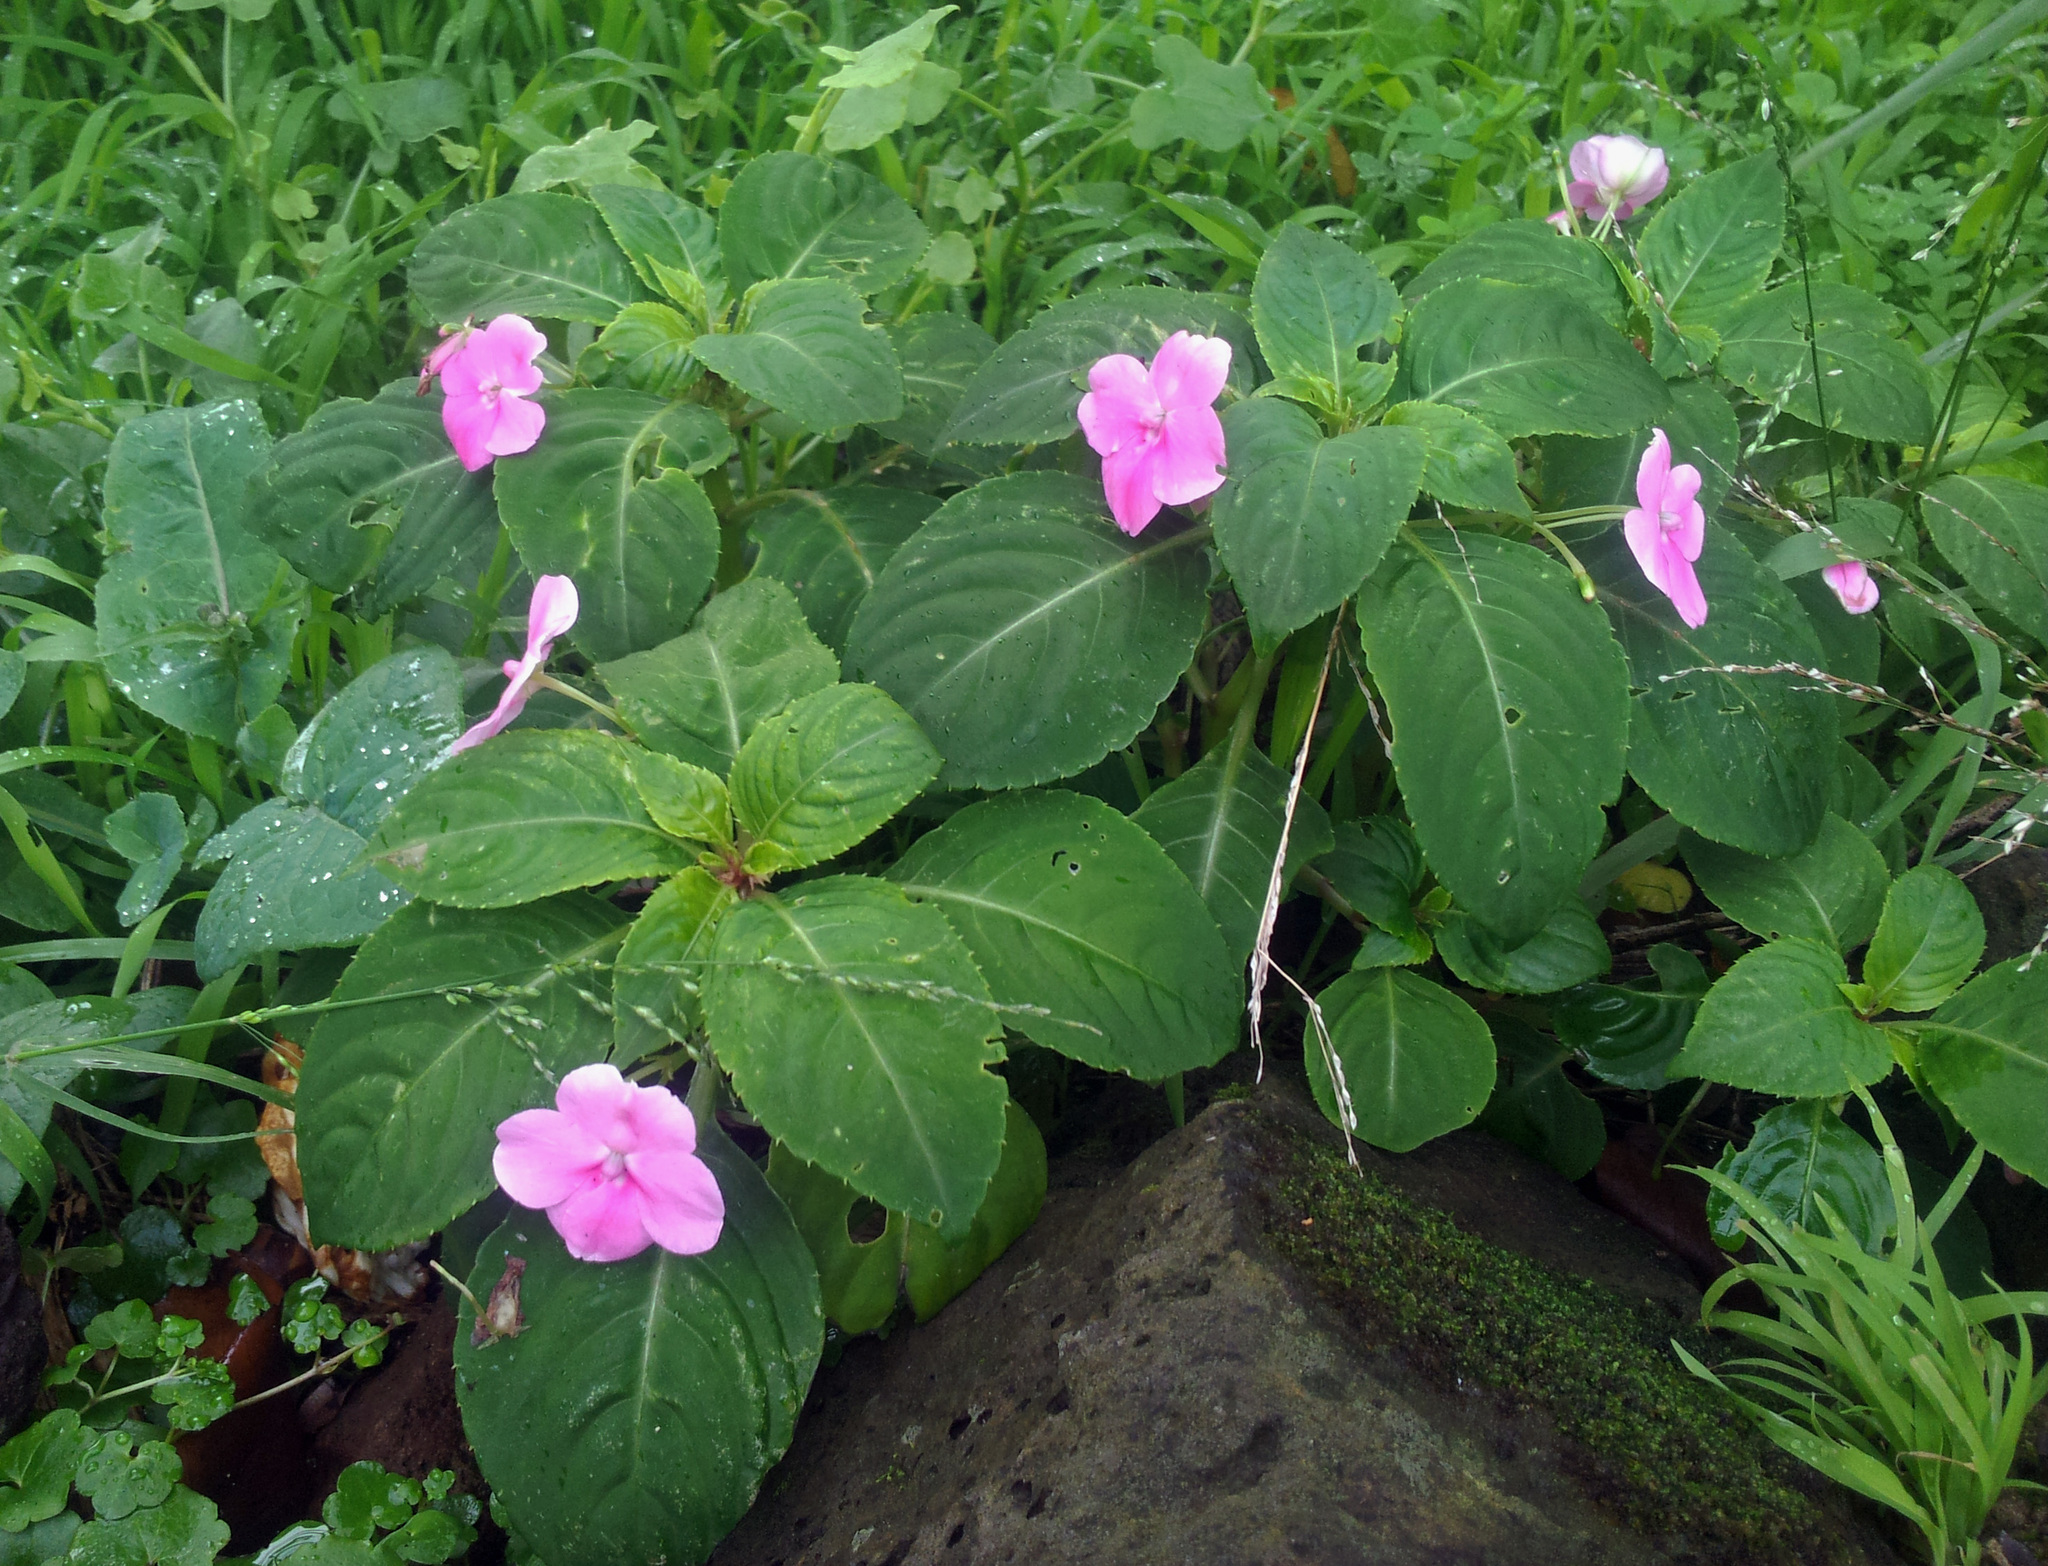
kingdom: Plantae
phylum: Tracheophyta
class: Magnoliopsida
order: Ericales
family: Balsaminaceae
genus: Impatiens
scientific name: Impatiens walleriana
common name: Buzzy lizzy
